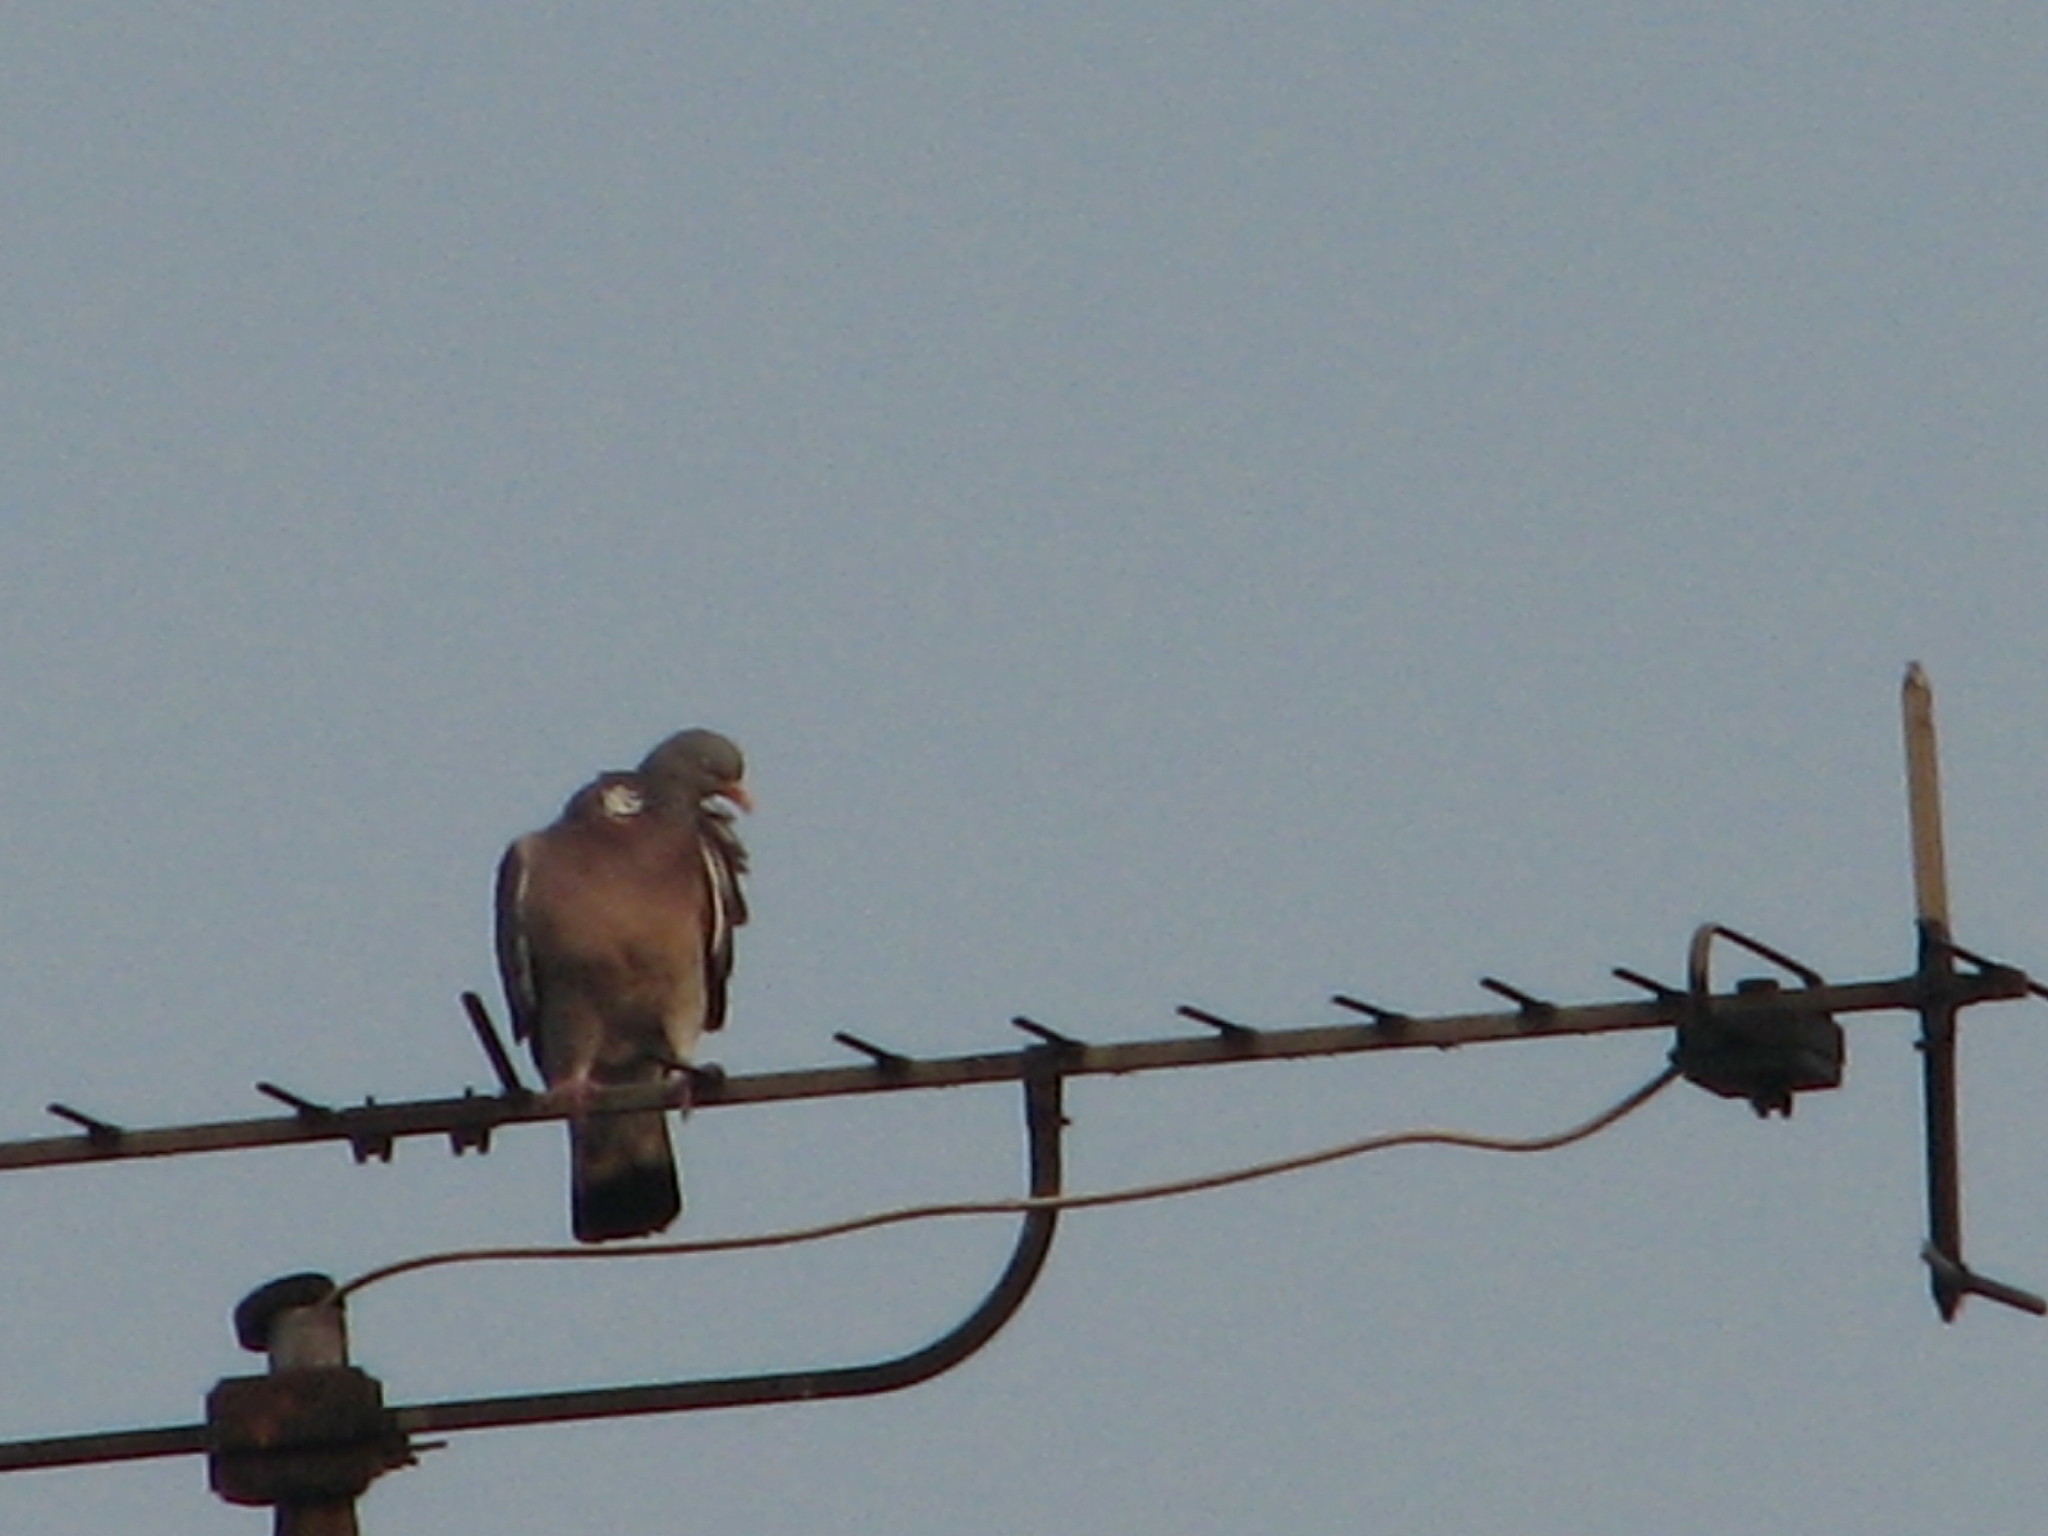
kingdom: Animalia
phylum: Chordata
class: Aves
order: Columbiformes
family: Columbidae
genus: Columba
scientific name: Columba palumbus
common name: Common wood pigeon
